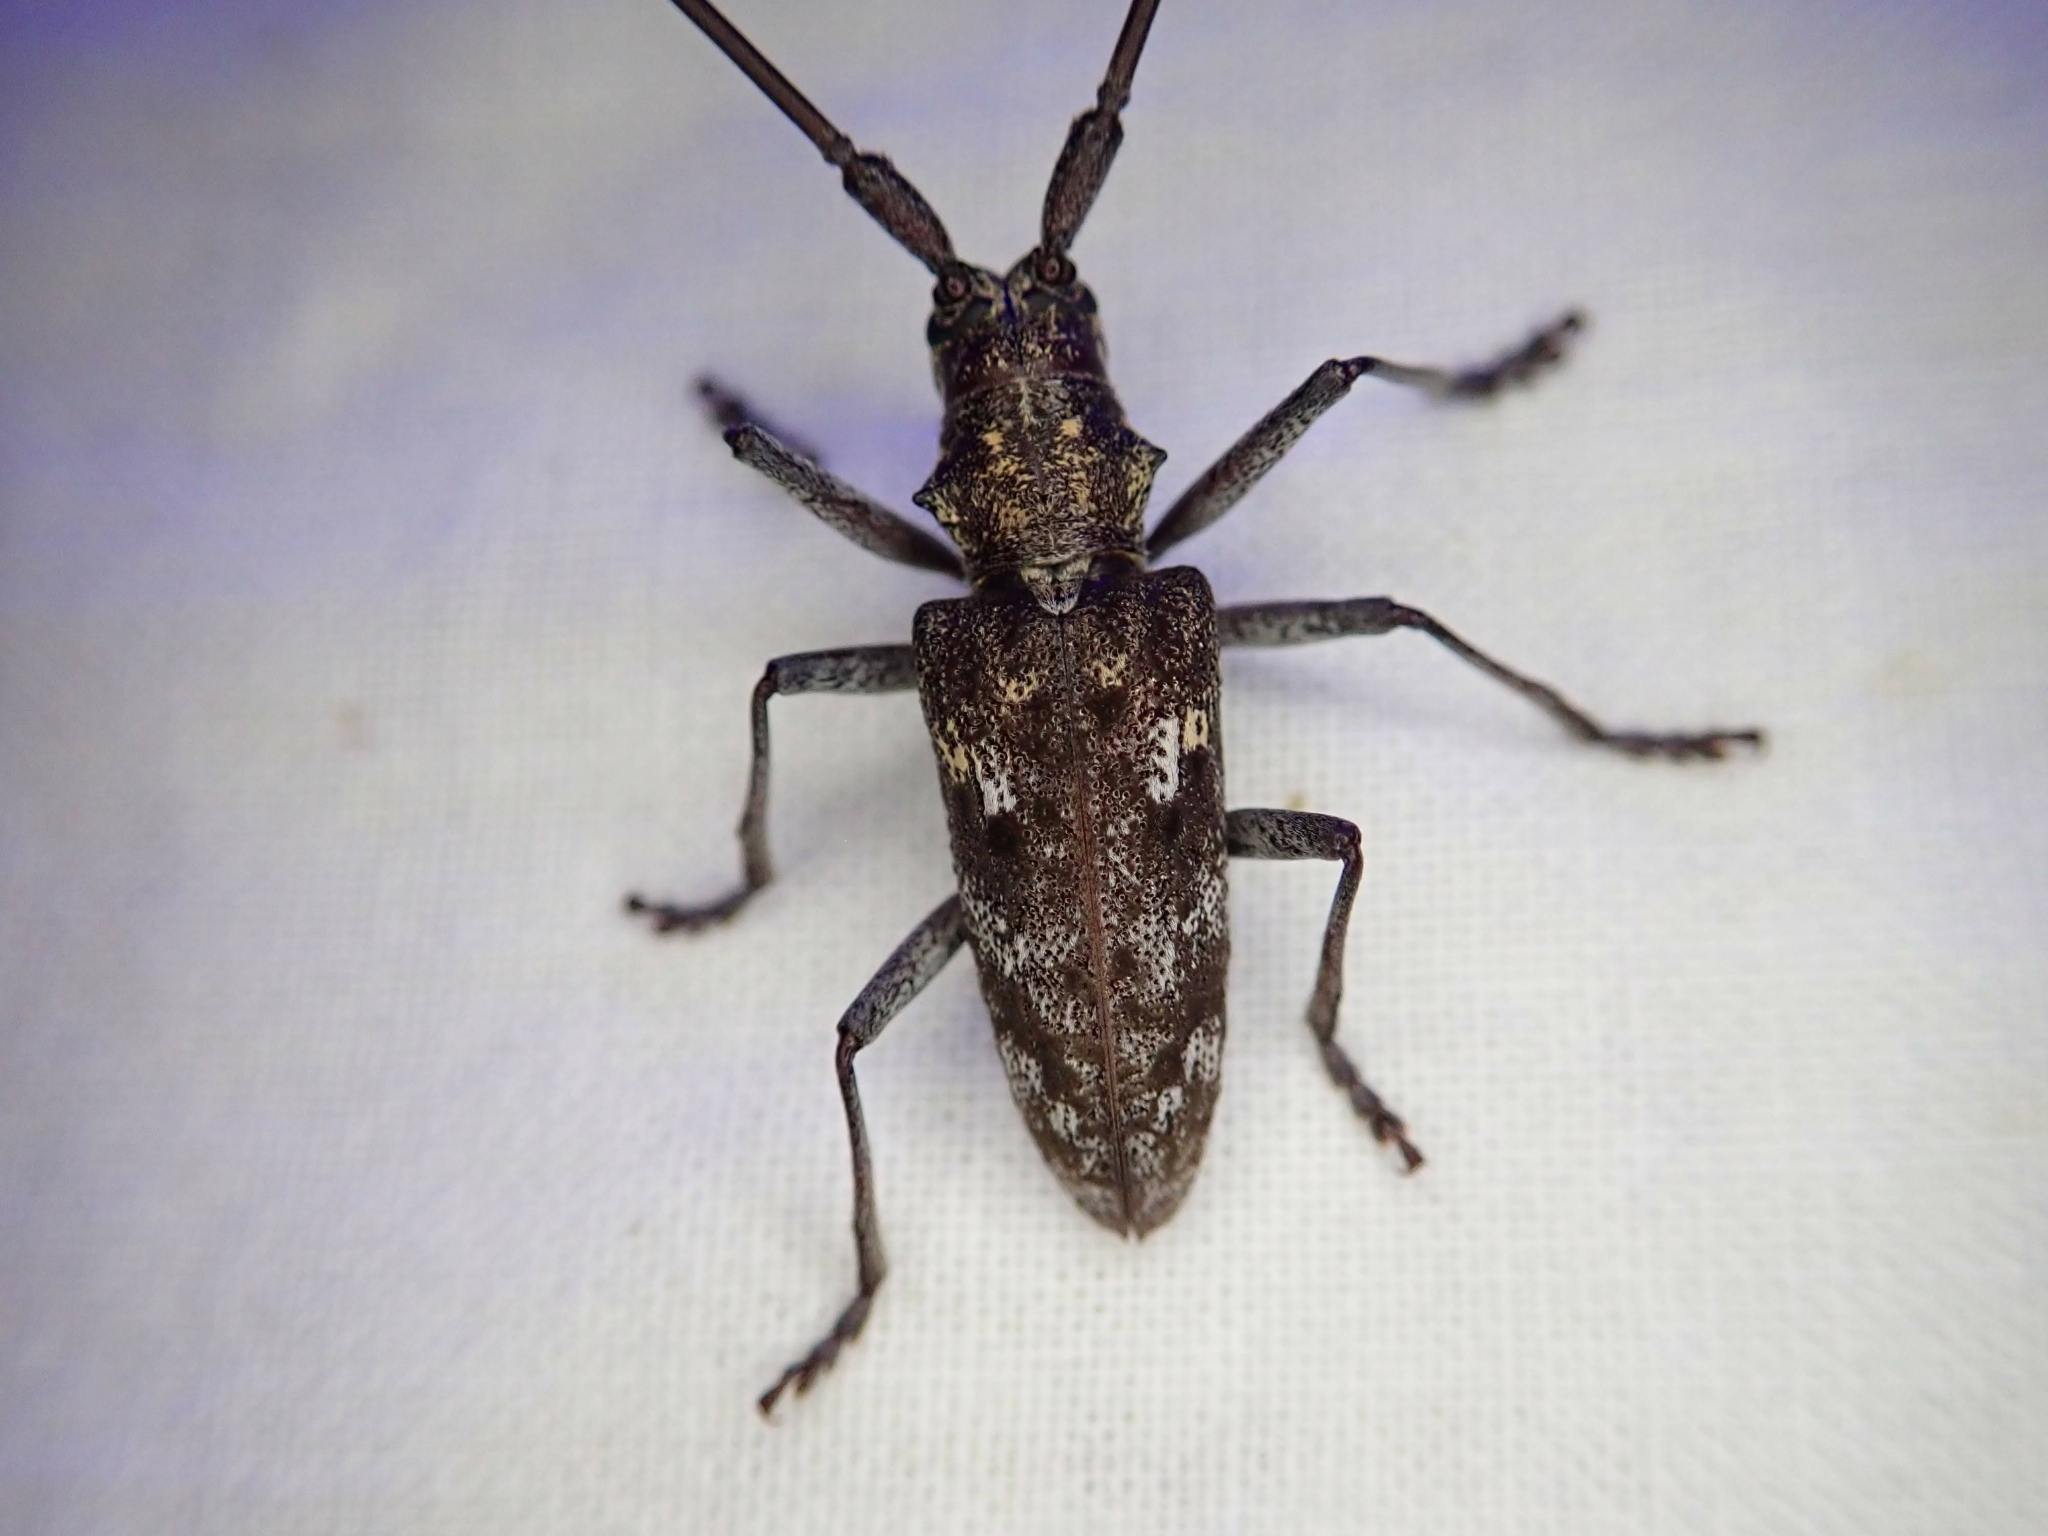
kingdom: Animalia
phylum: Arthropoda
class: Insecta
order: Coleoptera
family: Cerambycidae
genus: Monochamus
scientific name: Monochamus carolinensis
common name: Carolina pine sawyer
